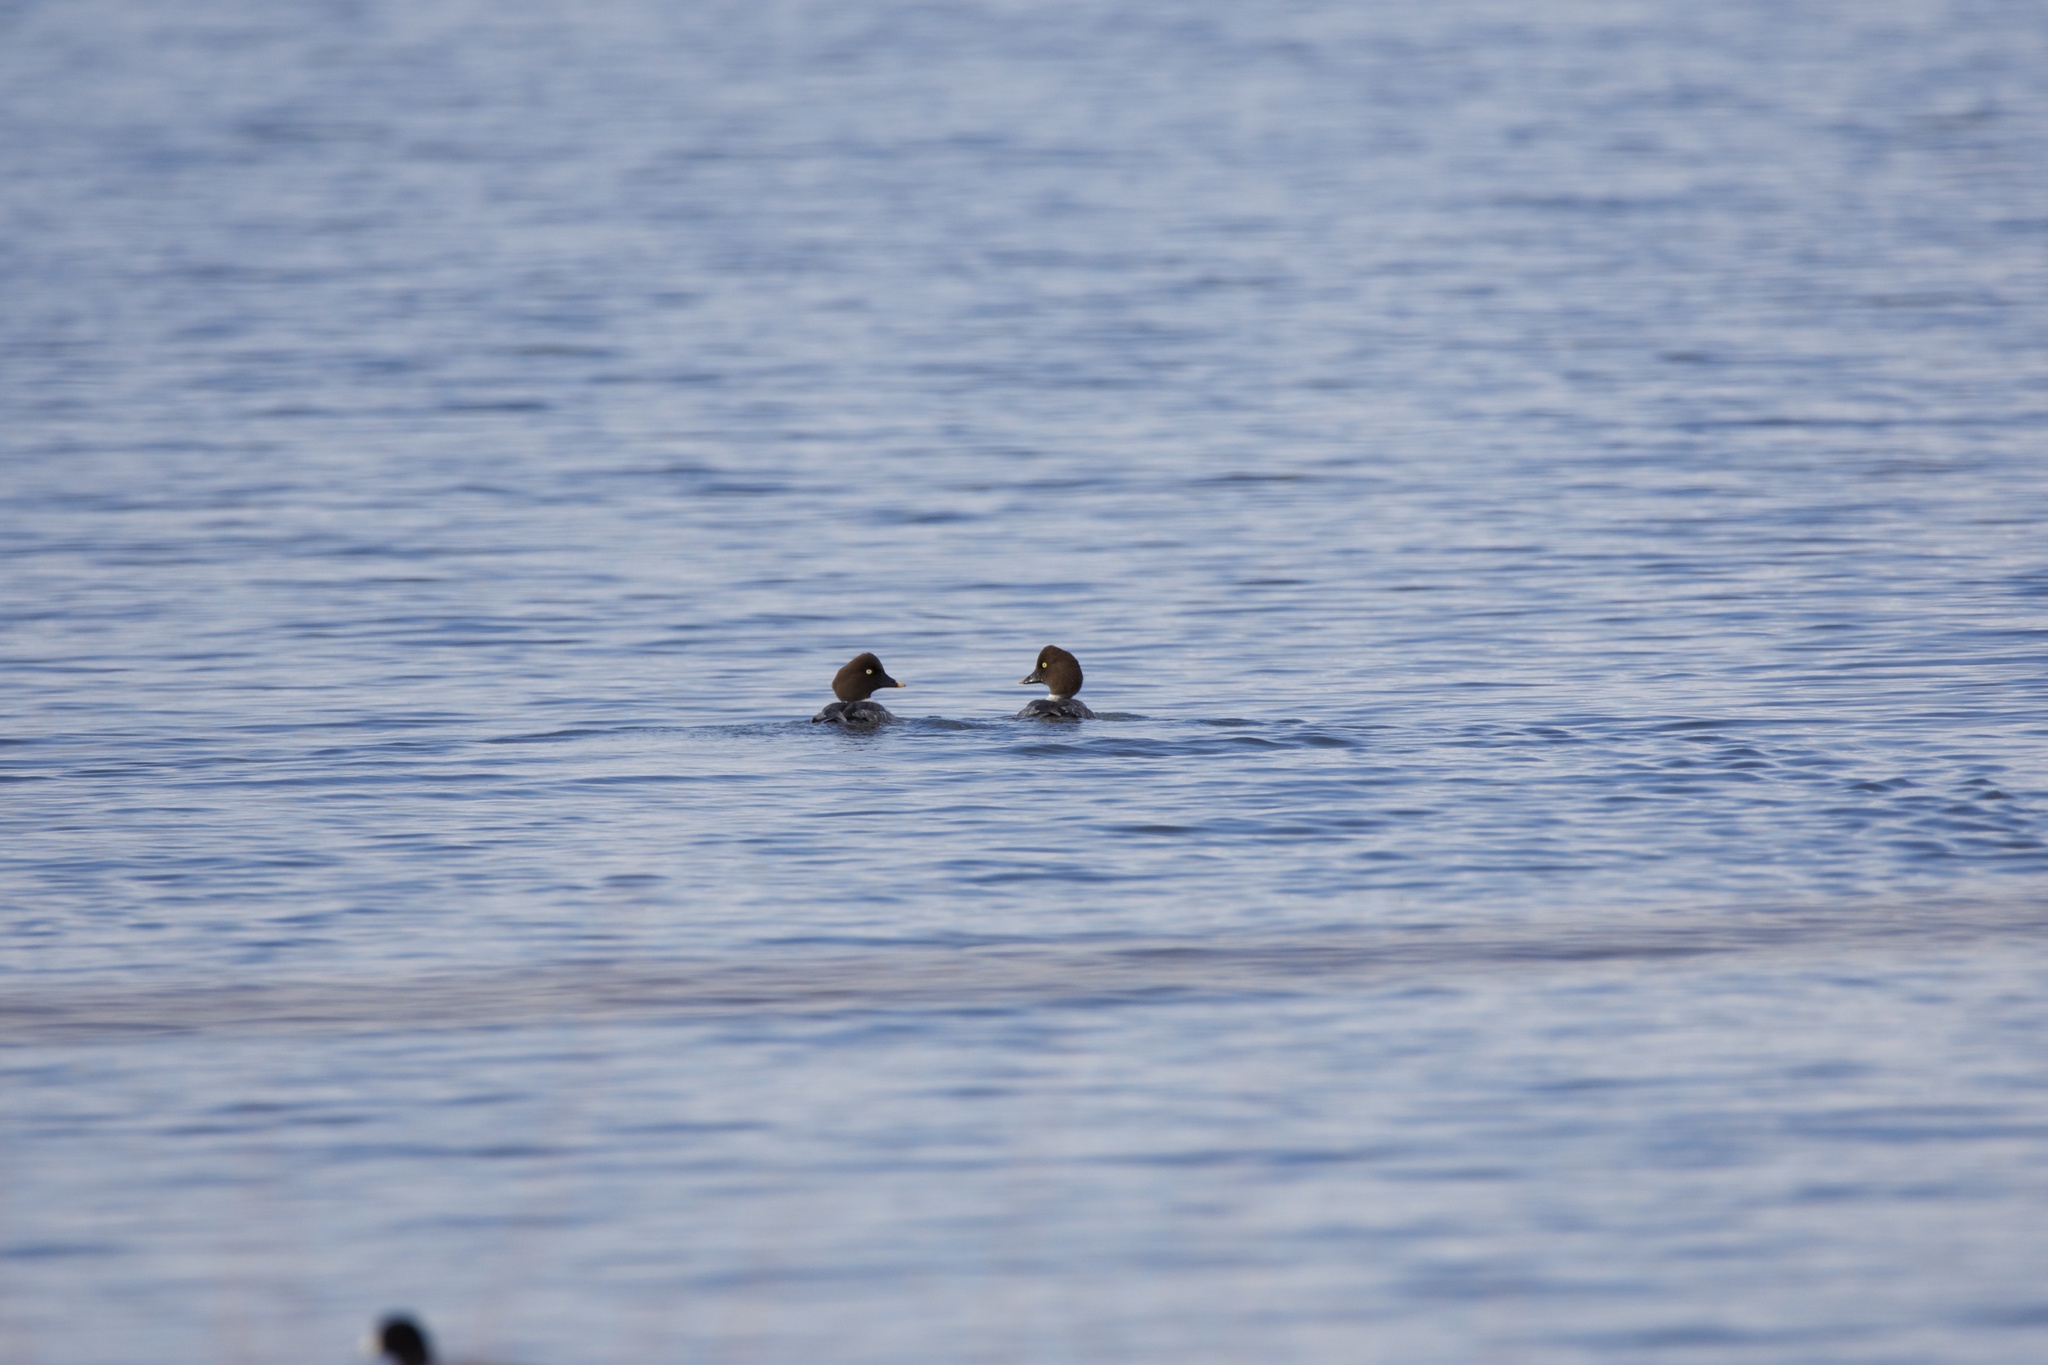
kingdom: Animalia
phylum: Chordata
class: Aves
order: Anseriformes
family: Anatidae
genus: Bucephala
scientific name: Bucephala clangula
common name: Common goldeneye
